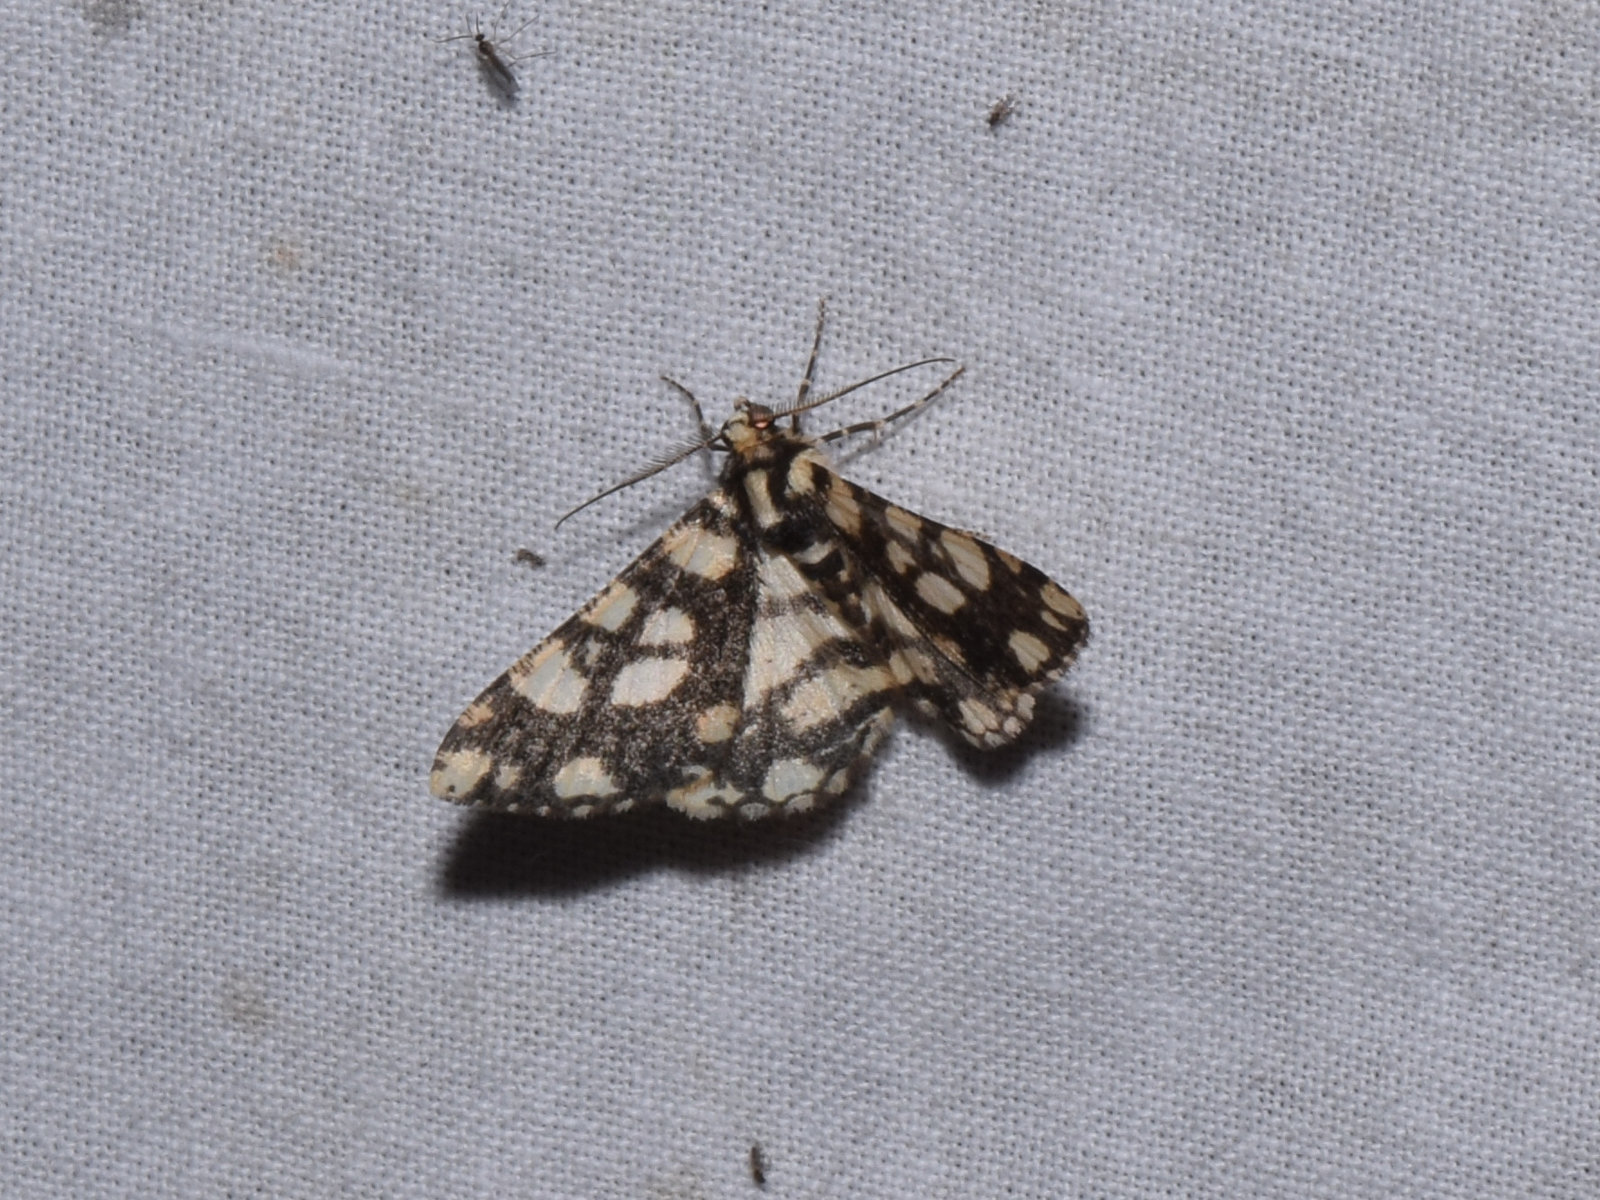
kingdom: Animalia
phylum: Arthropoda
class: Insecta
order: Lepidoptera
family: Geometridae
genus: Alcis
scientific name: Alcis maculata
